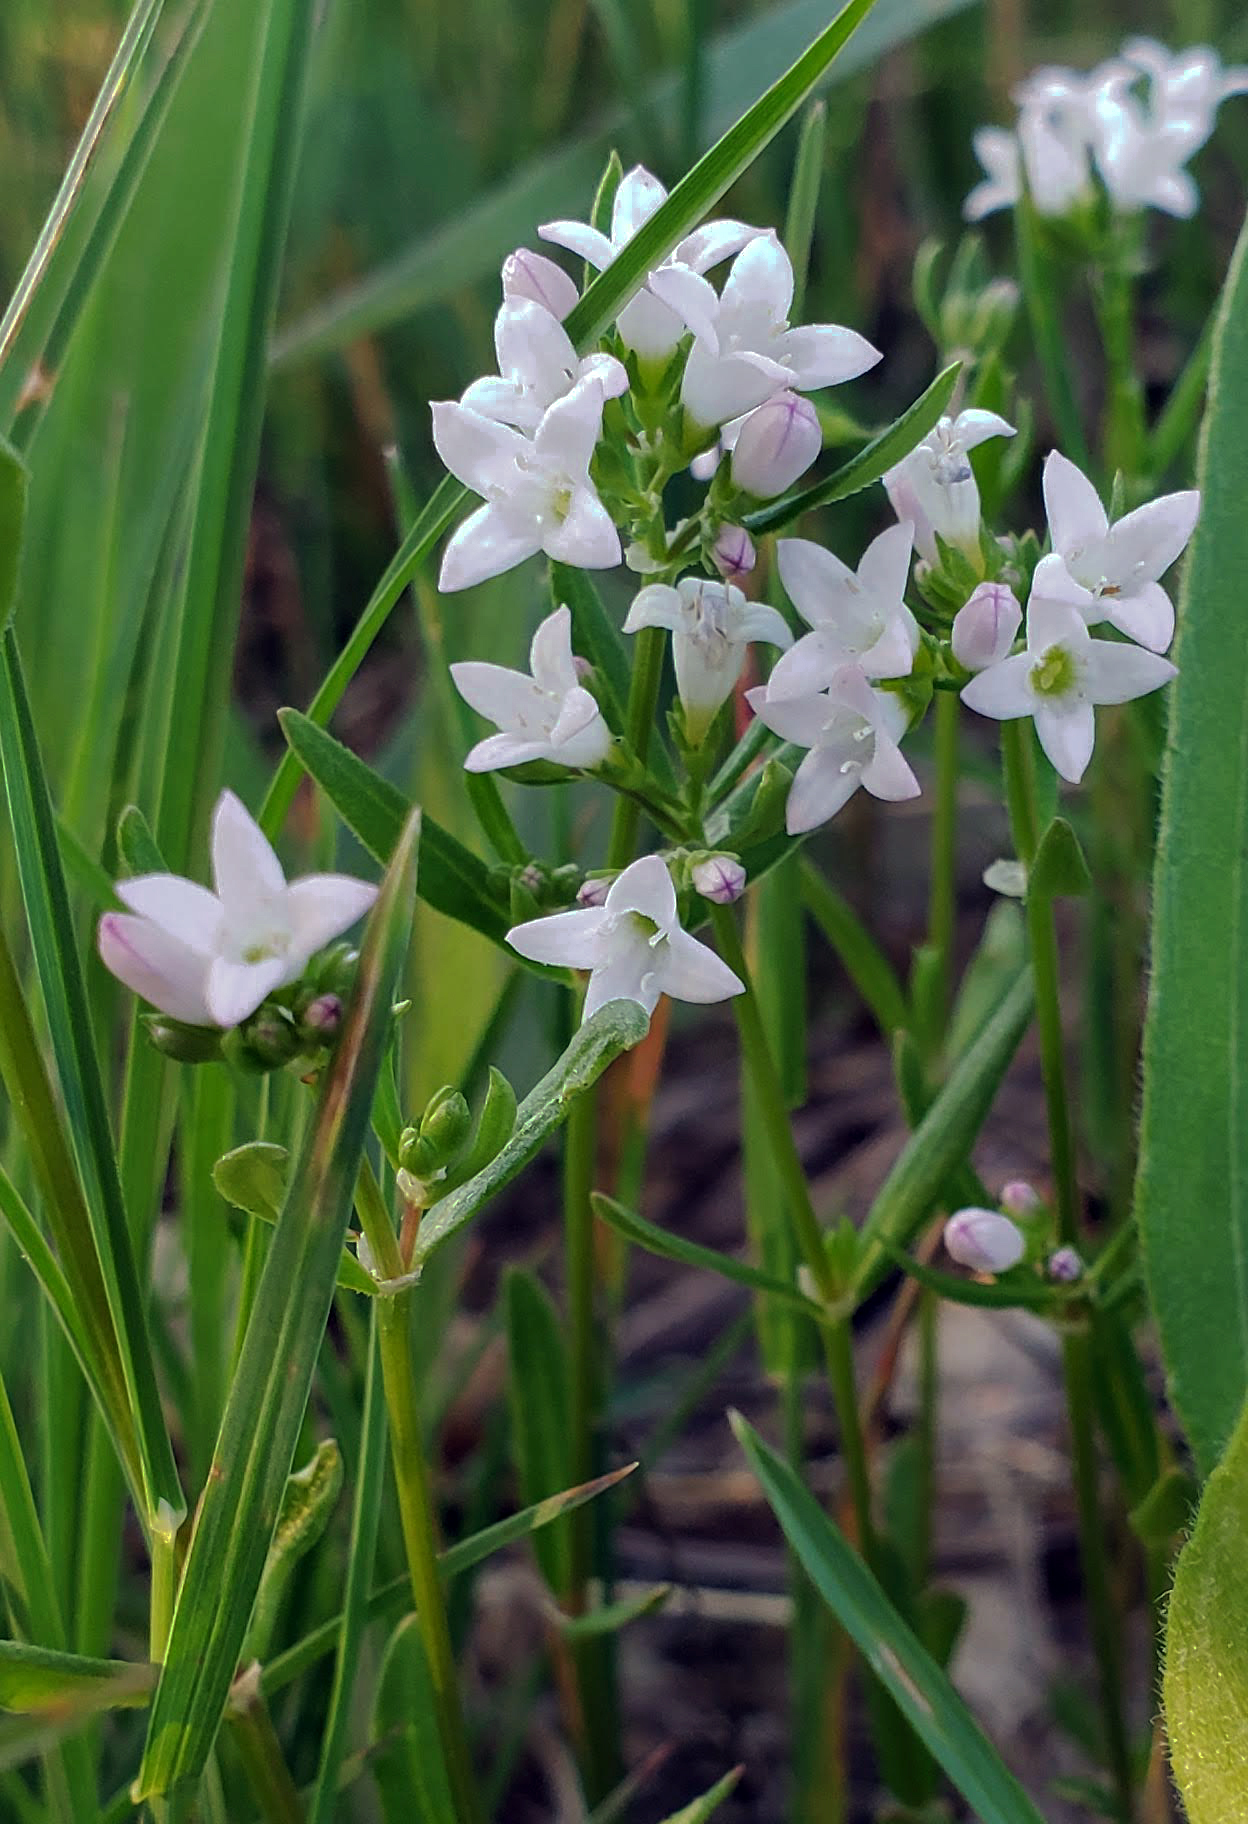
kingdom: Plantae
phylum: Tracheophyta
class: Magnoliopsida
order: Gentianales
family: Rubiaceae
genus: Houstonia
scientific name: Houstonia longifolia
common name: Long-leaved bluets
